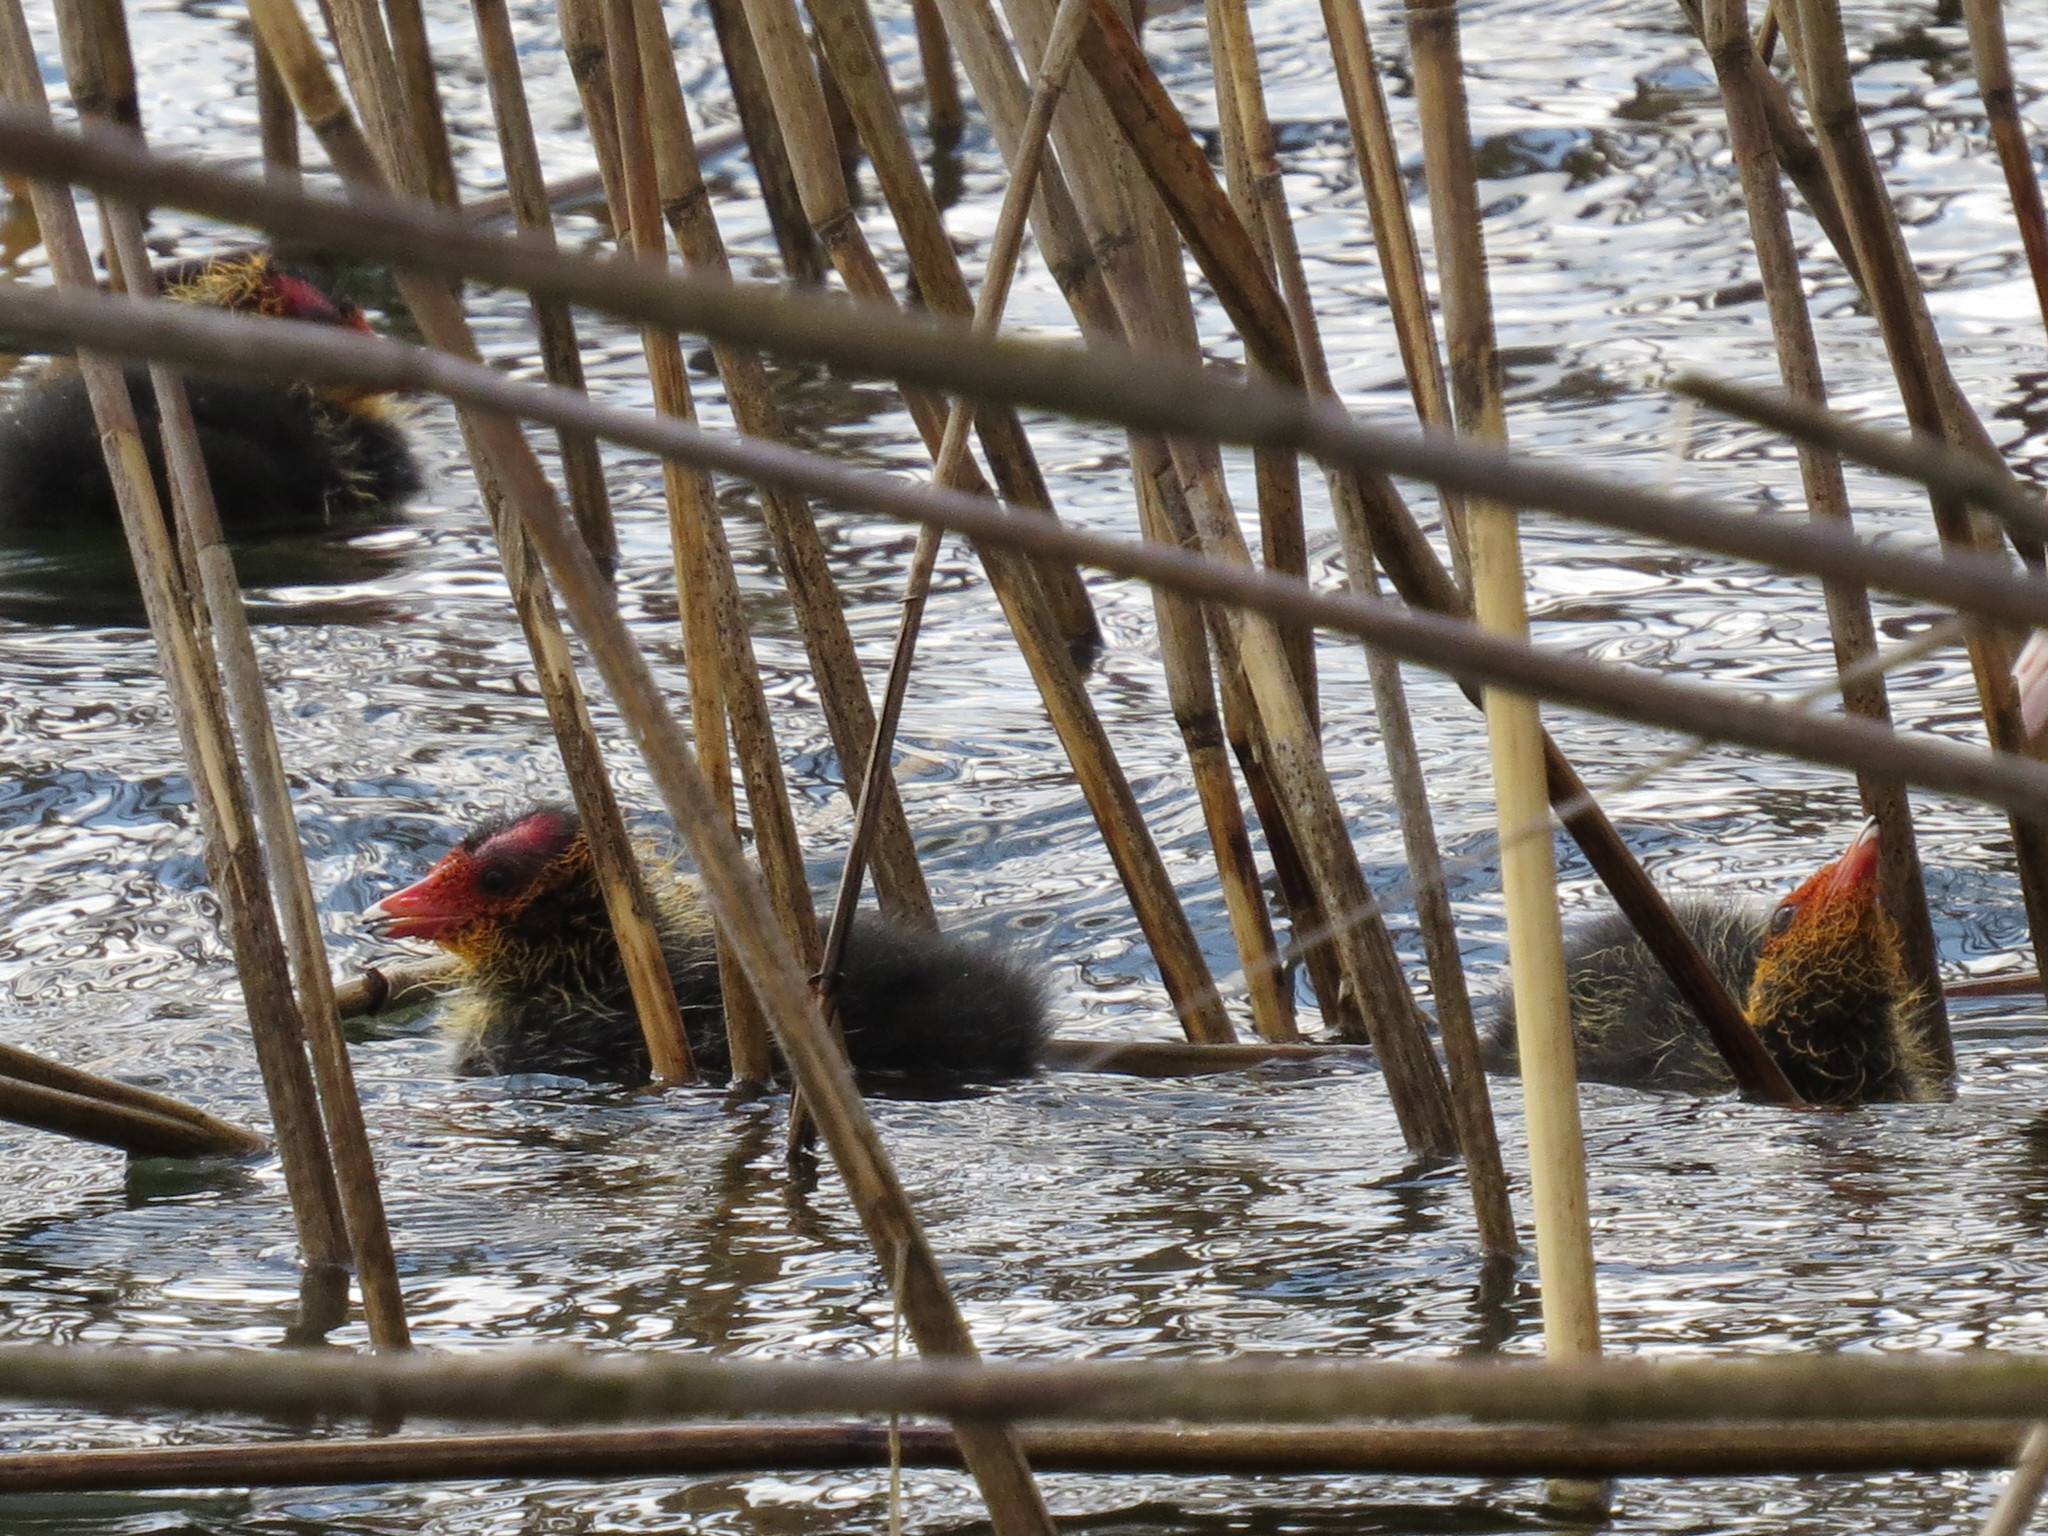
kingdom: Animalia
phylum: Chordata
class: Aves
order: Gruiformes
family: Rallidae
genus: Fulica
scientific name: Fulica atra
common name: Eurasian coot
